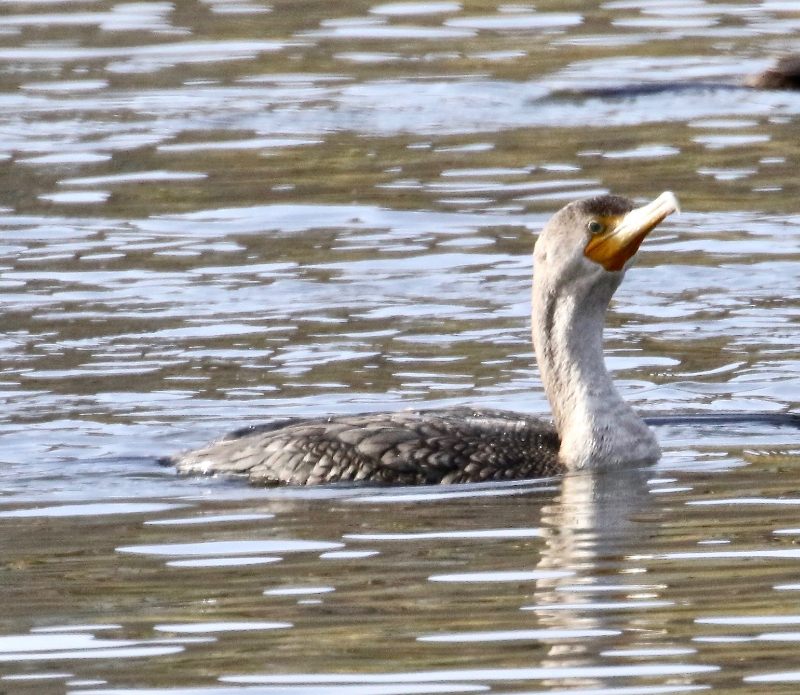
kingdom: Animalia
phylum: Chordata
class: Aves
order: Suliformes
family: Phalacrocoracidae
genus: Phalacrocorax
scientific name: Phalacrocorax auritus
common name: Double-crested cormorant
